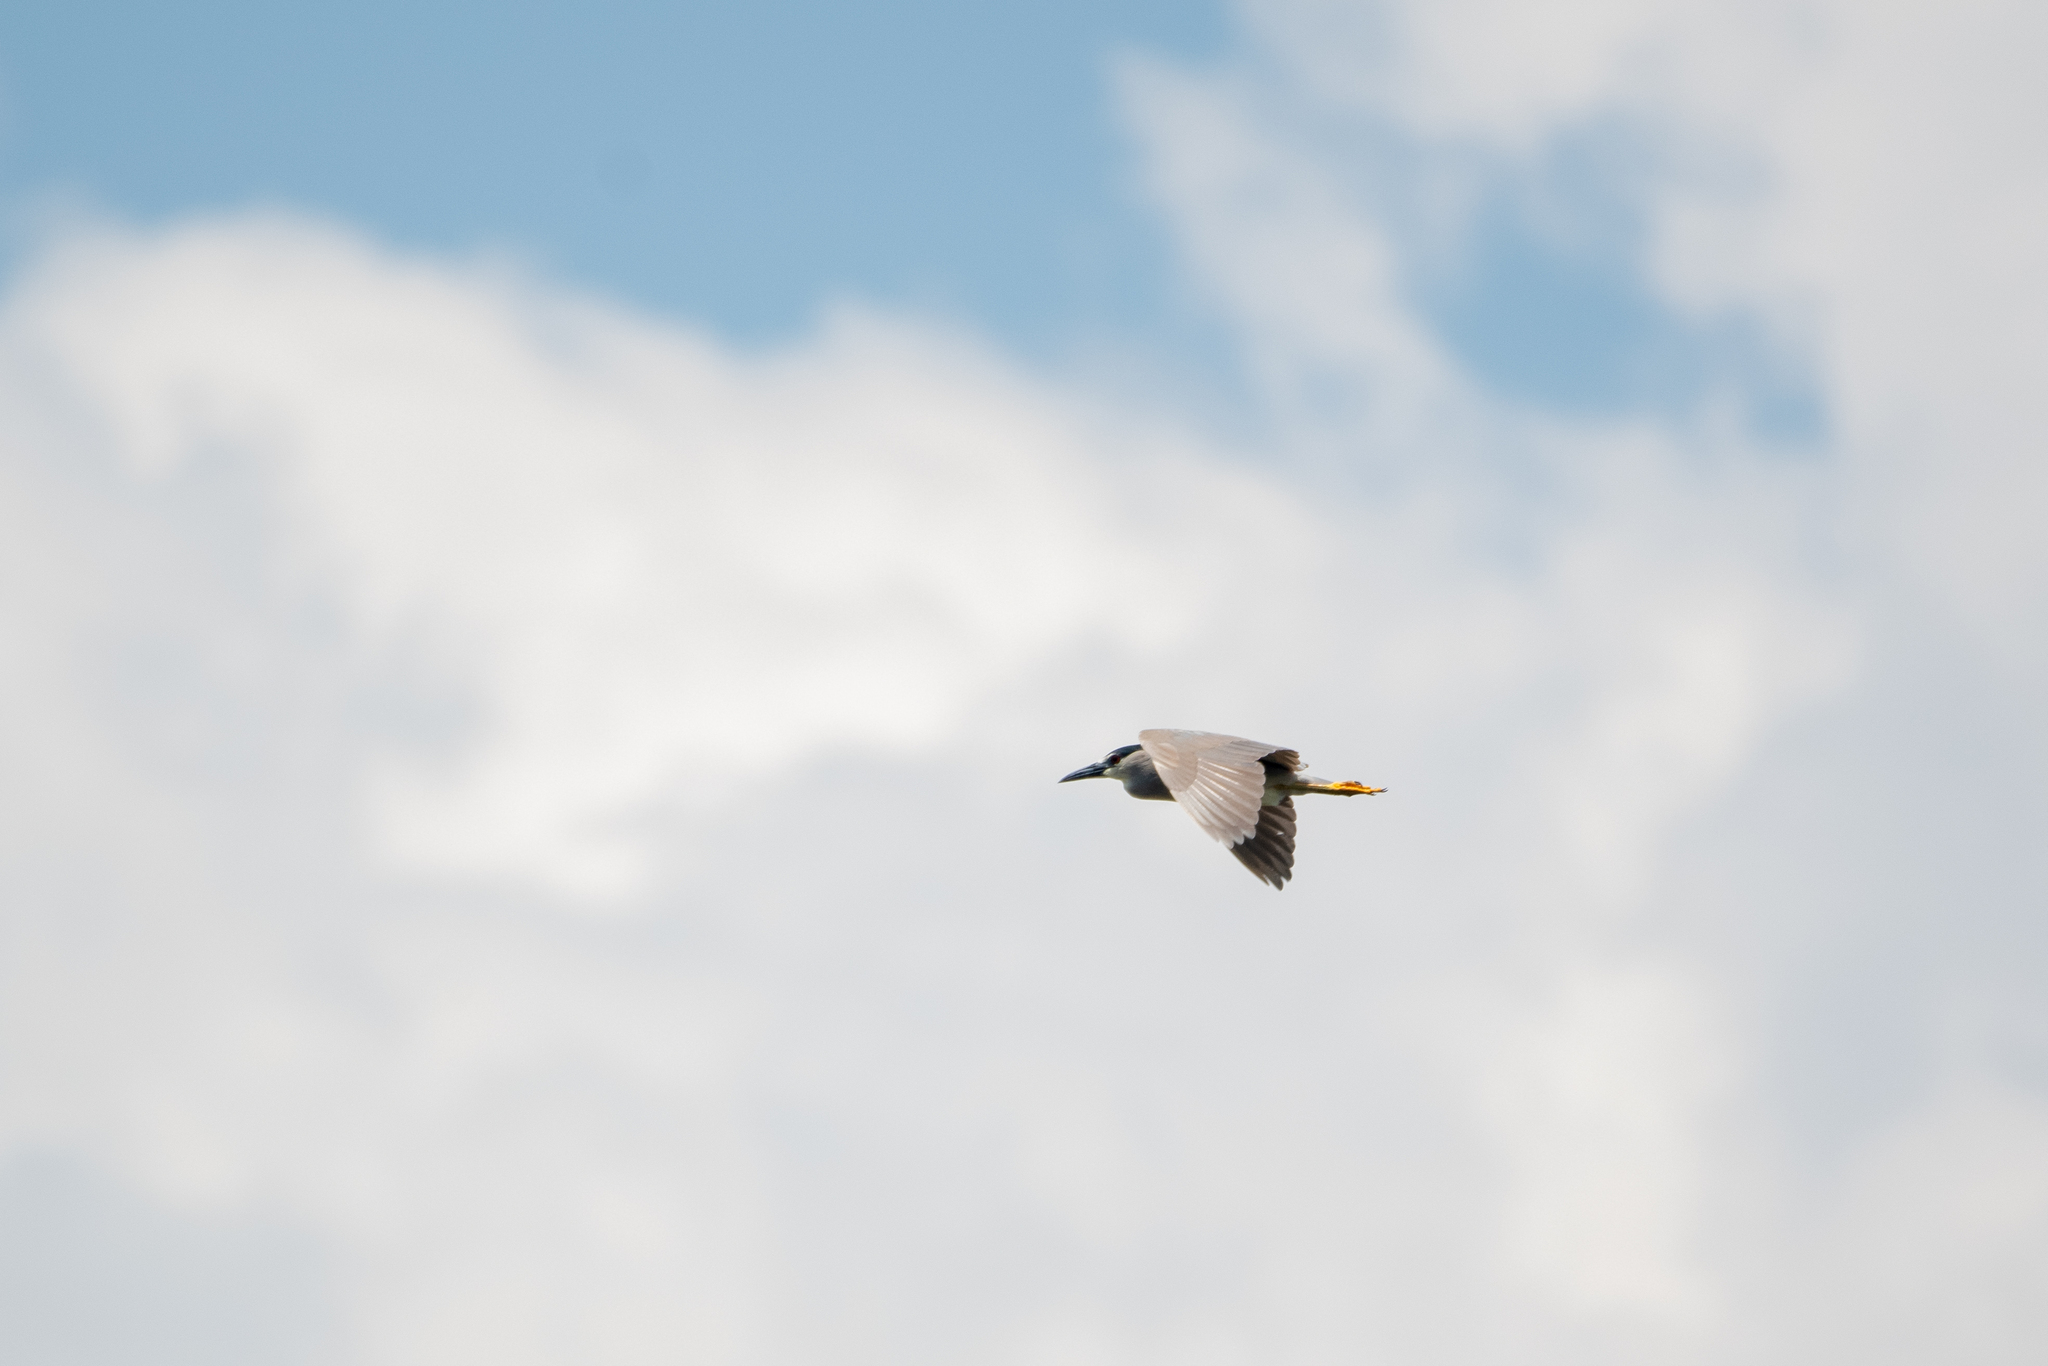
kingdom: Animalia
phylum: Chordata
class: Aves
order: Pelecaniformes
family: Ardeidae
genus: Nycticorax
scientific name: Nycticorax nycticorax
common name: Black-crowned night heron
